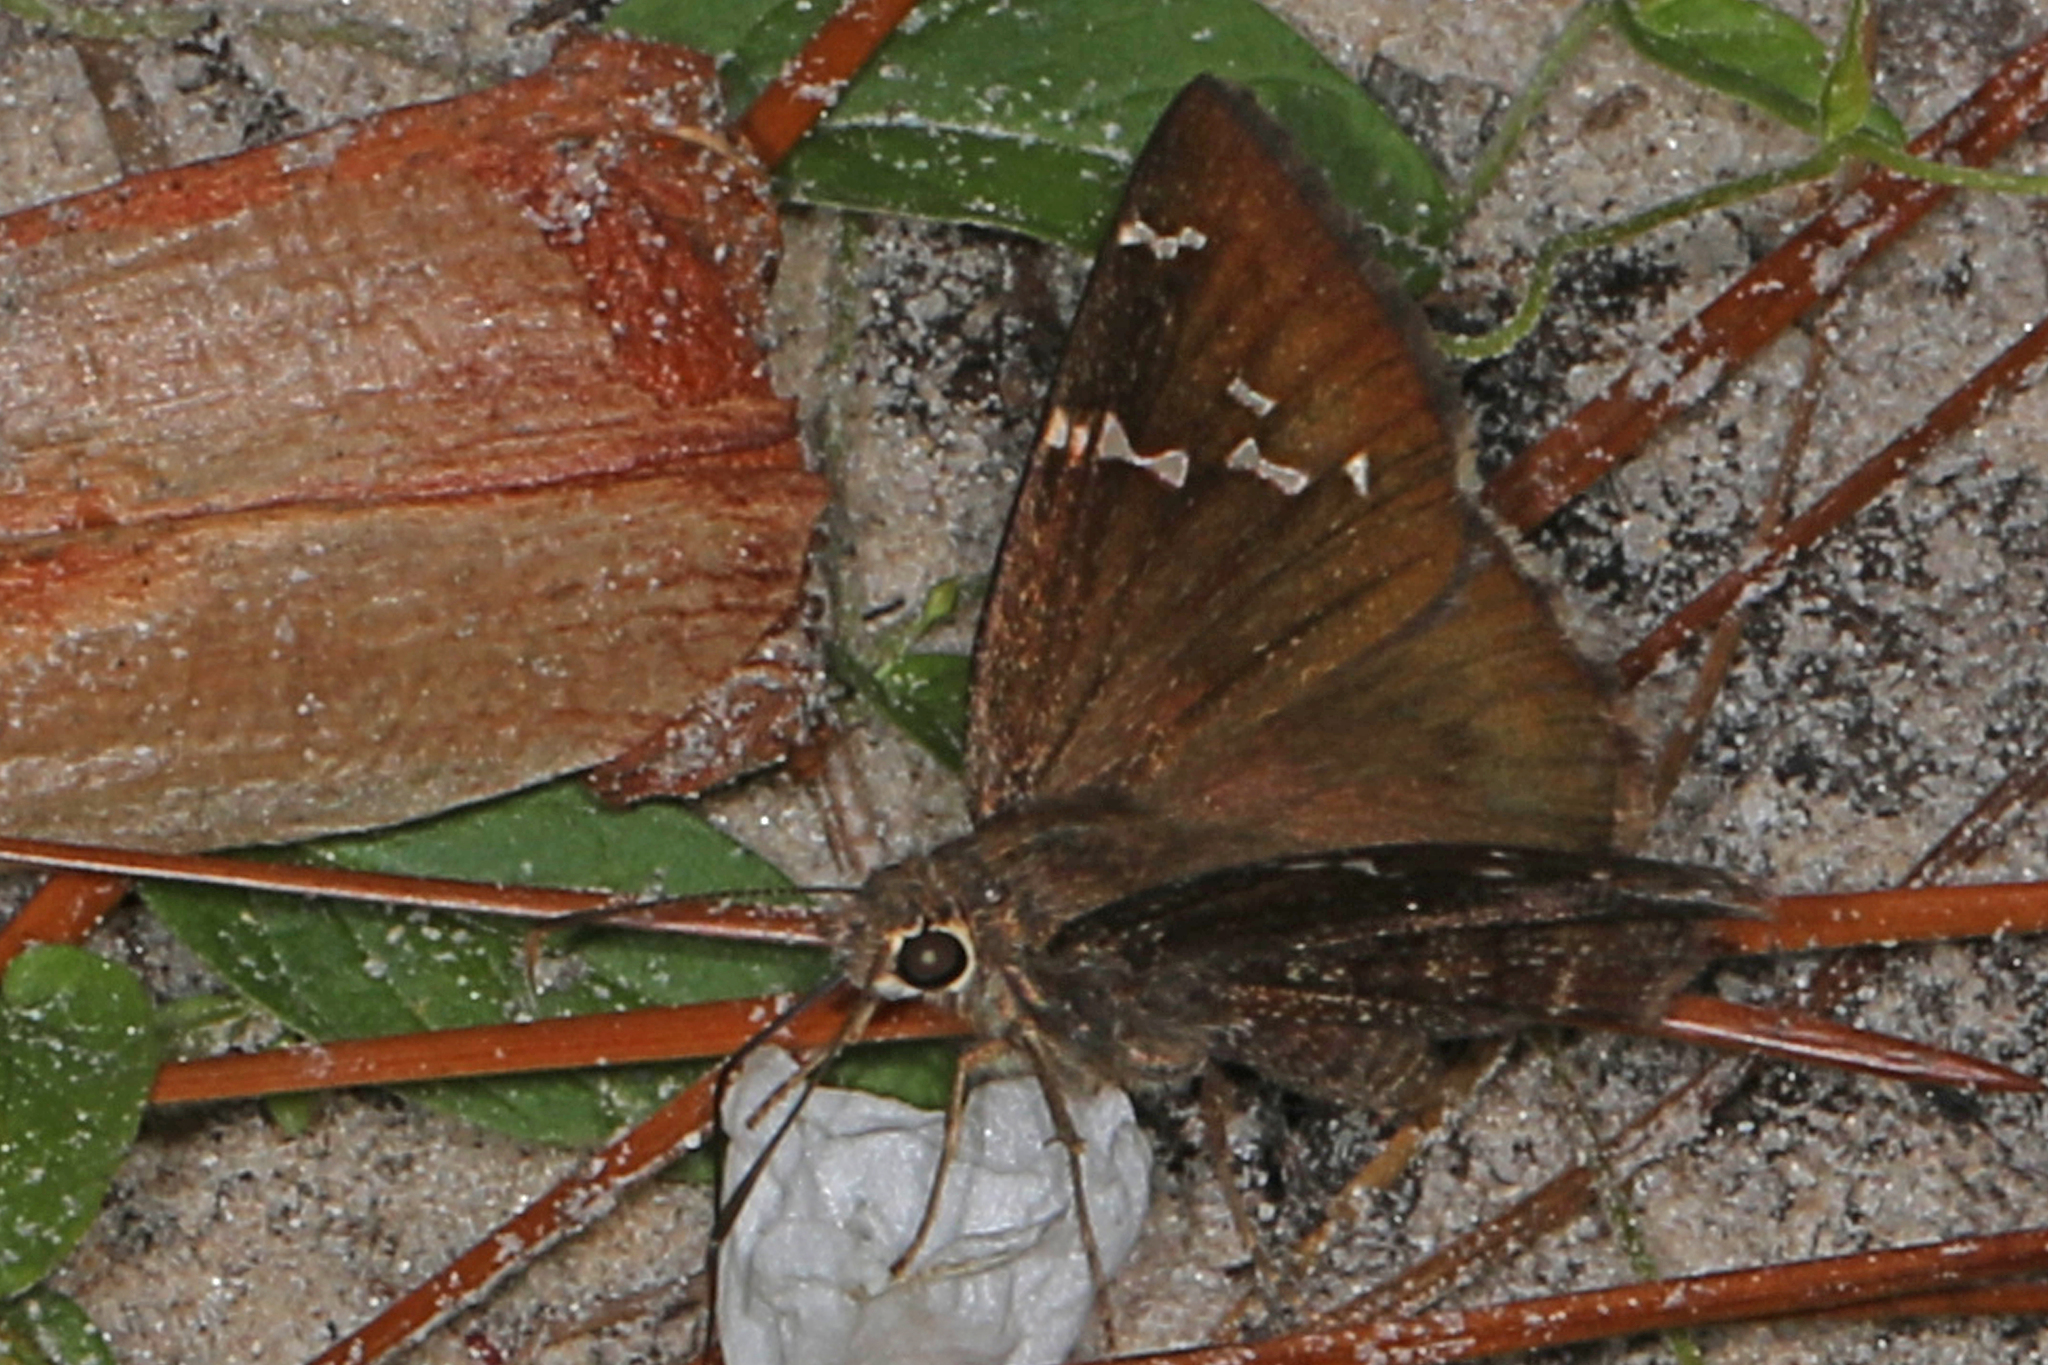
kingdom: Animalia
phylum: Arthropoda
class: Insecta
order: Lepidoptera
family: Hesperiidae
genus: Thorybes
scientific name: Thorybes mexicana
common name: Mexican cloudywing
